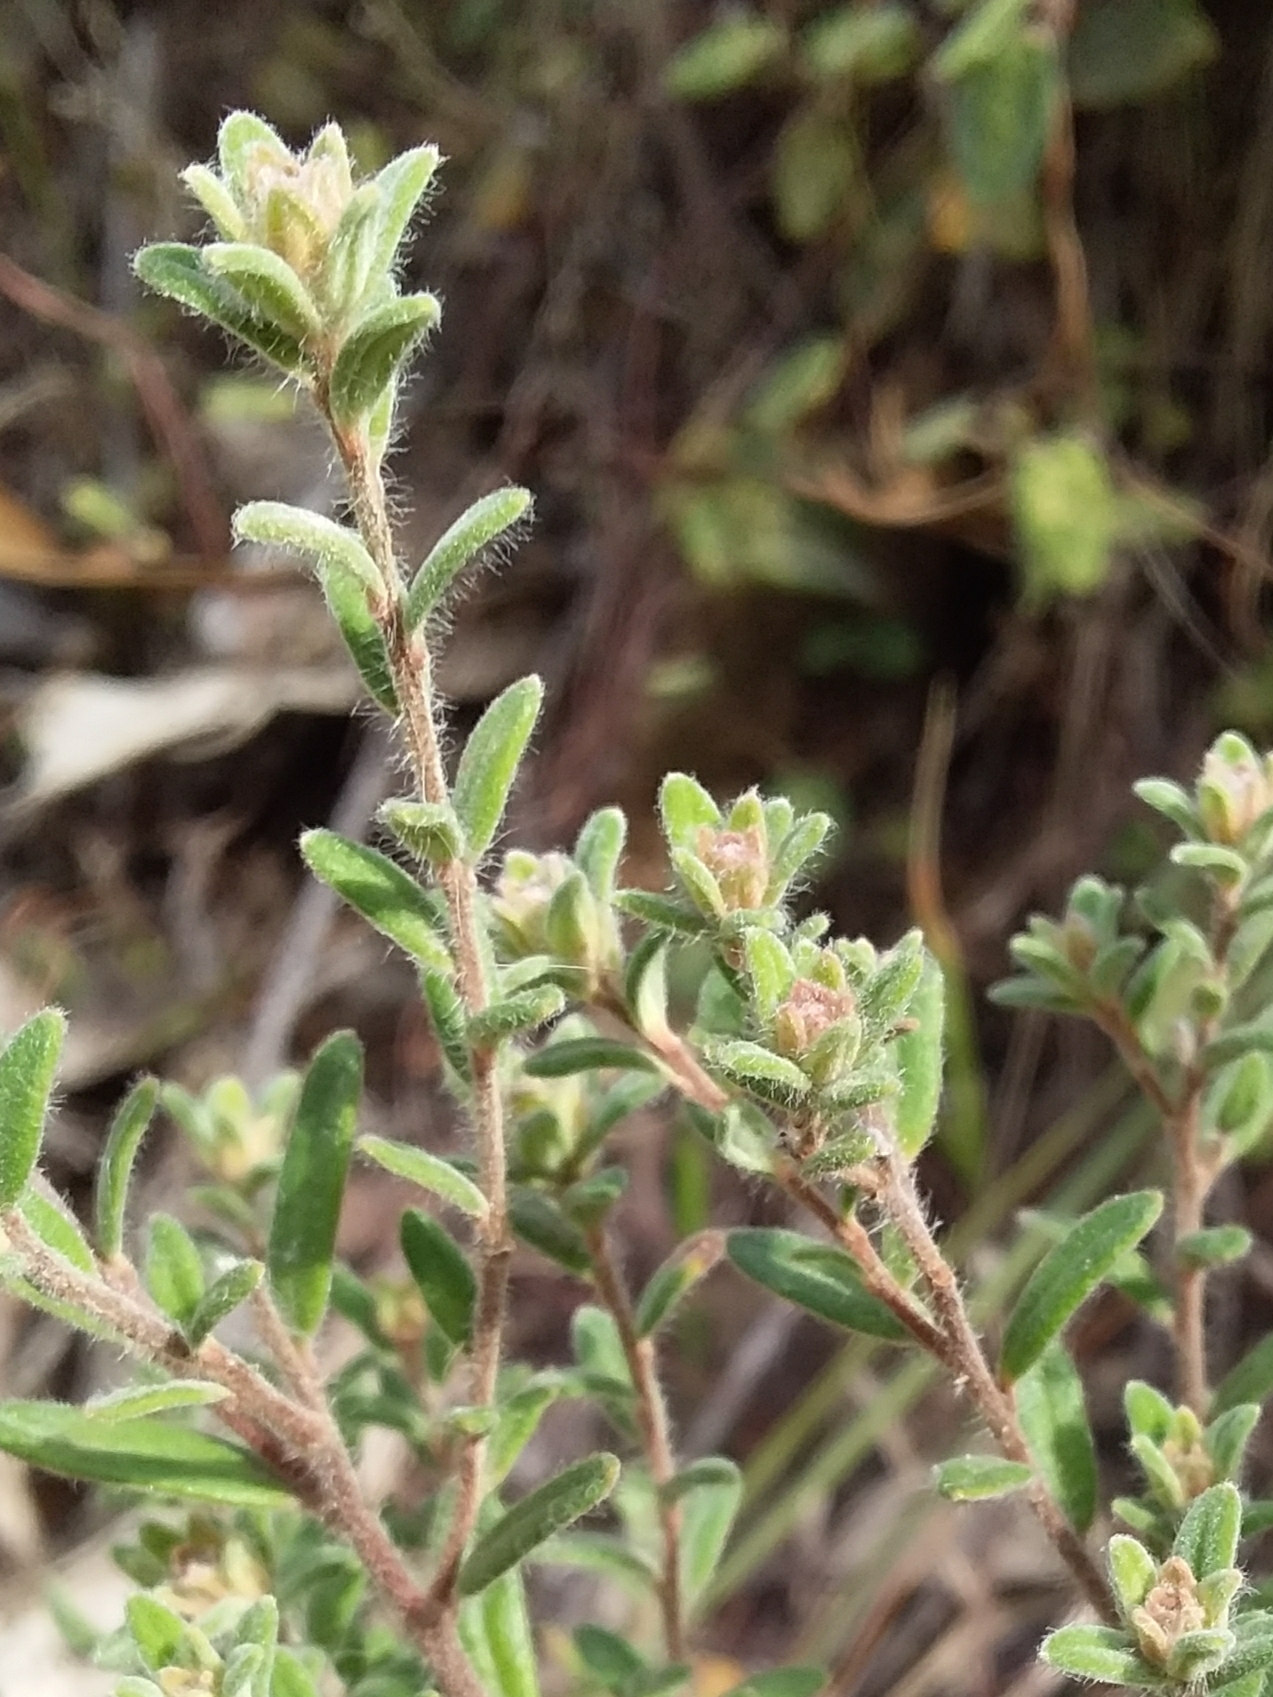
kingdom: Plantae
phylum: Tracheophyta
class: Magnoliopsida
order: Dilleniales
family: Dilleniaceae
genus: Hibbertia
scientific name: Hibbertia crinita
